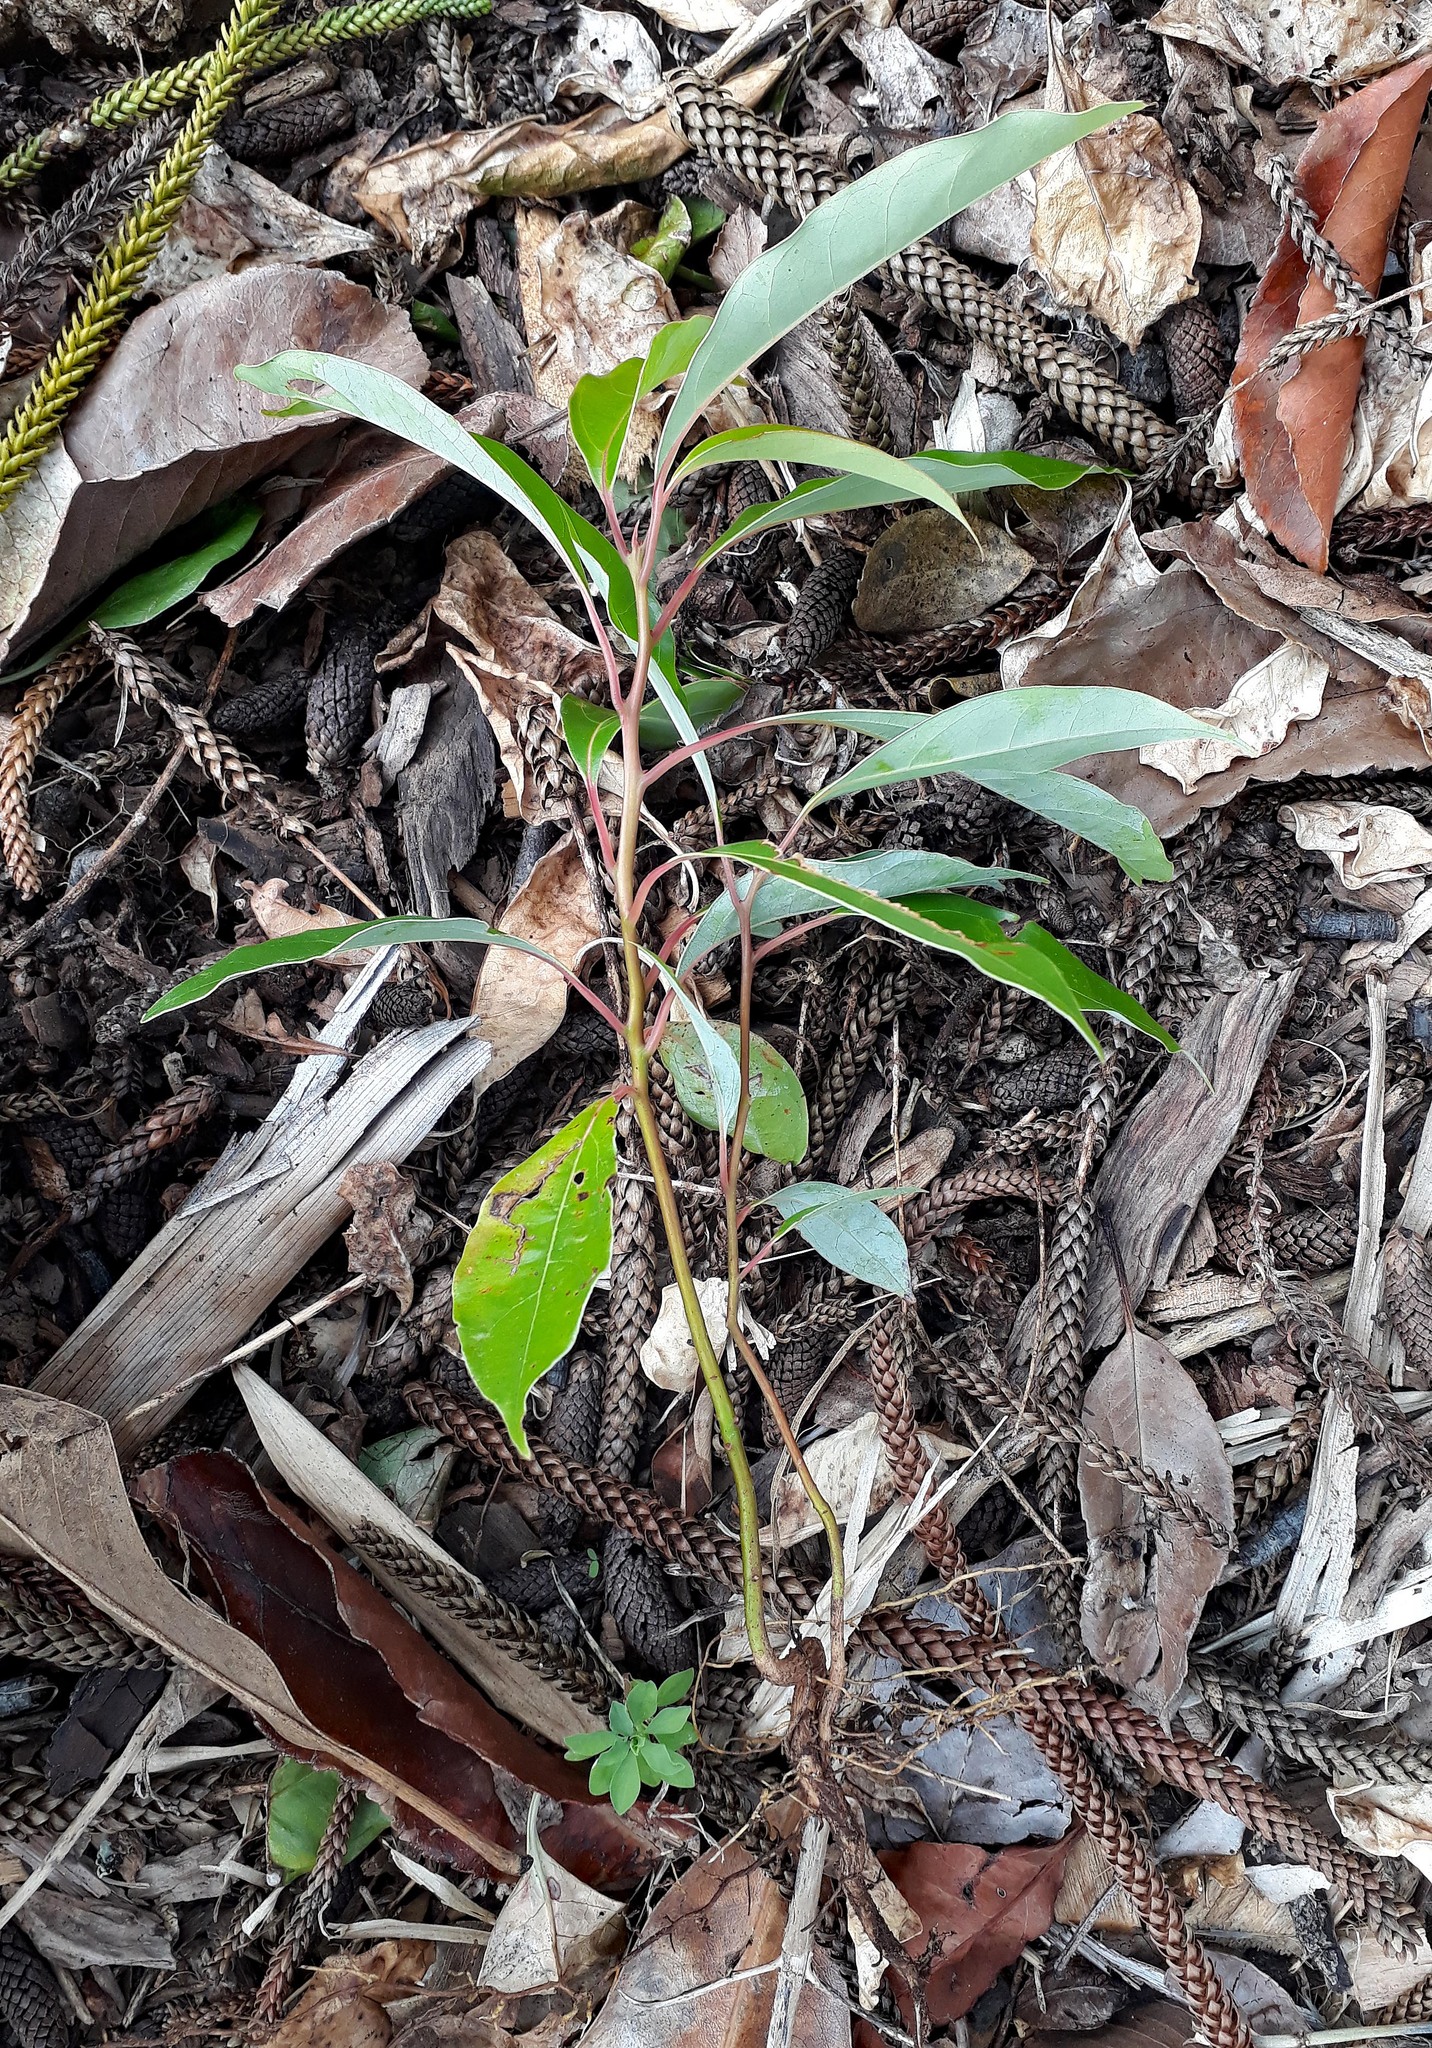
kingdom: Plantae
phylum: Tracheophyta
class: Magnoliopsida
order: Laurales
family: Lauraceae
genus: Cinnamomum
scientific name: Cinnamomum camphora
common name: Camphortree
